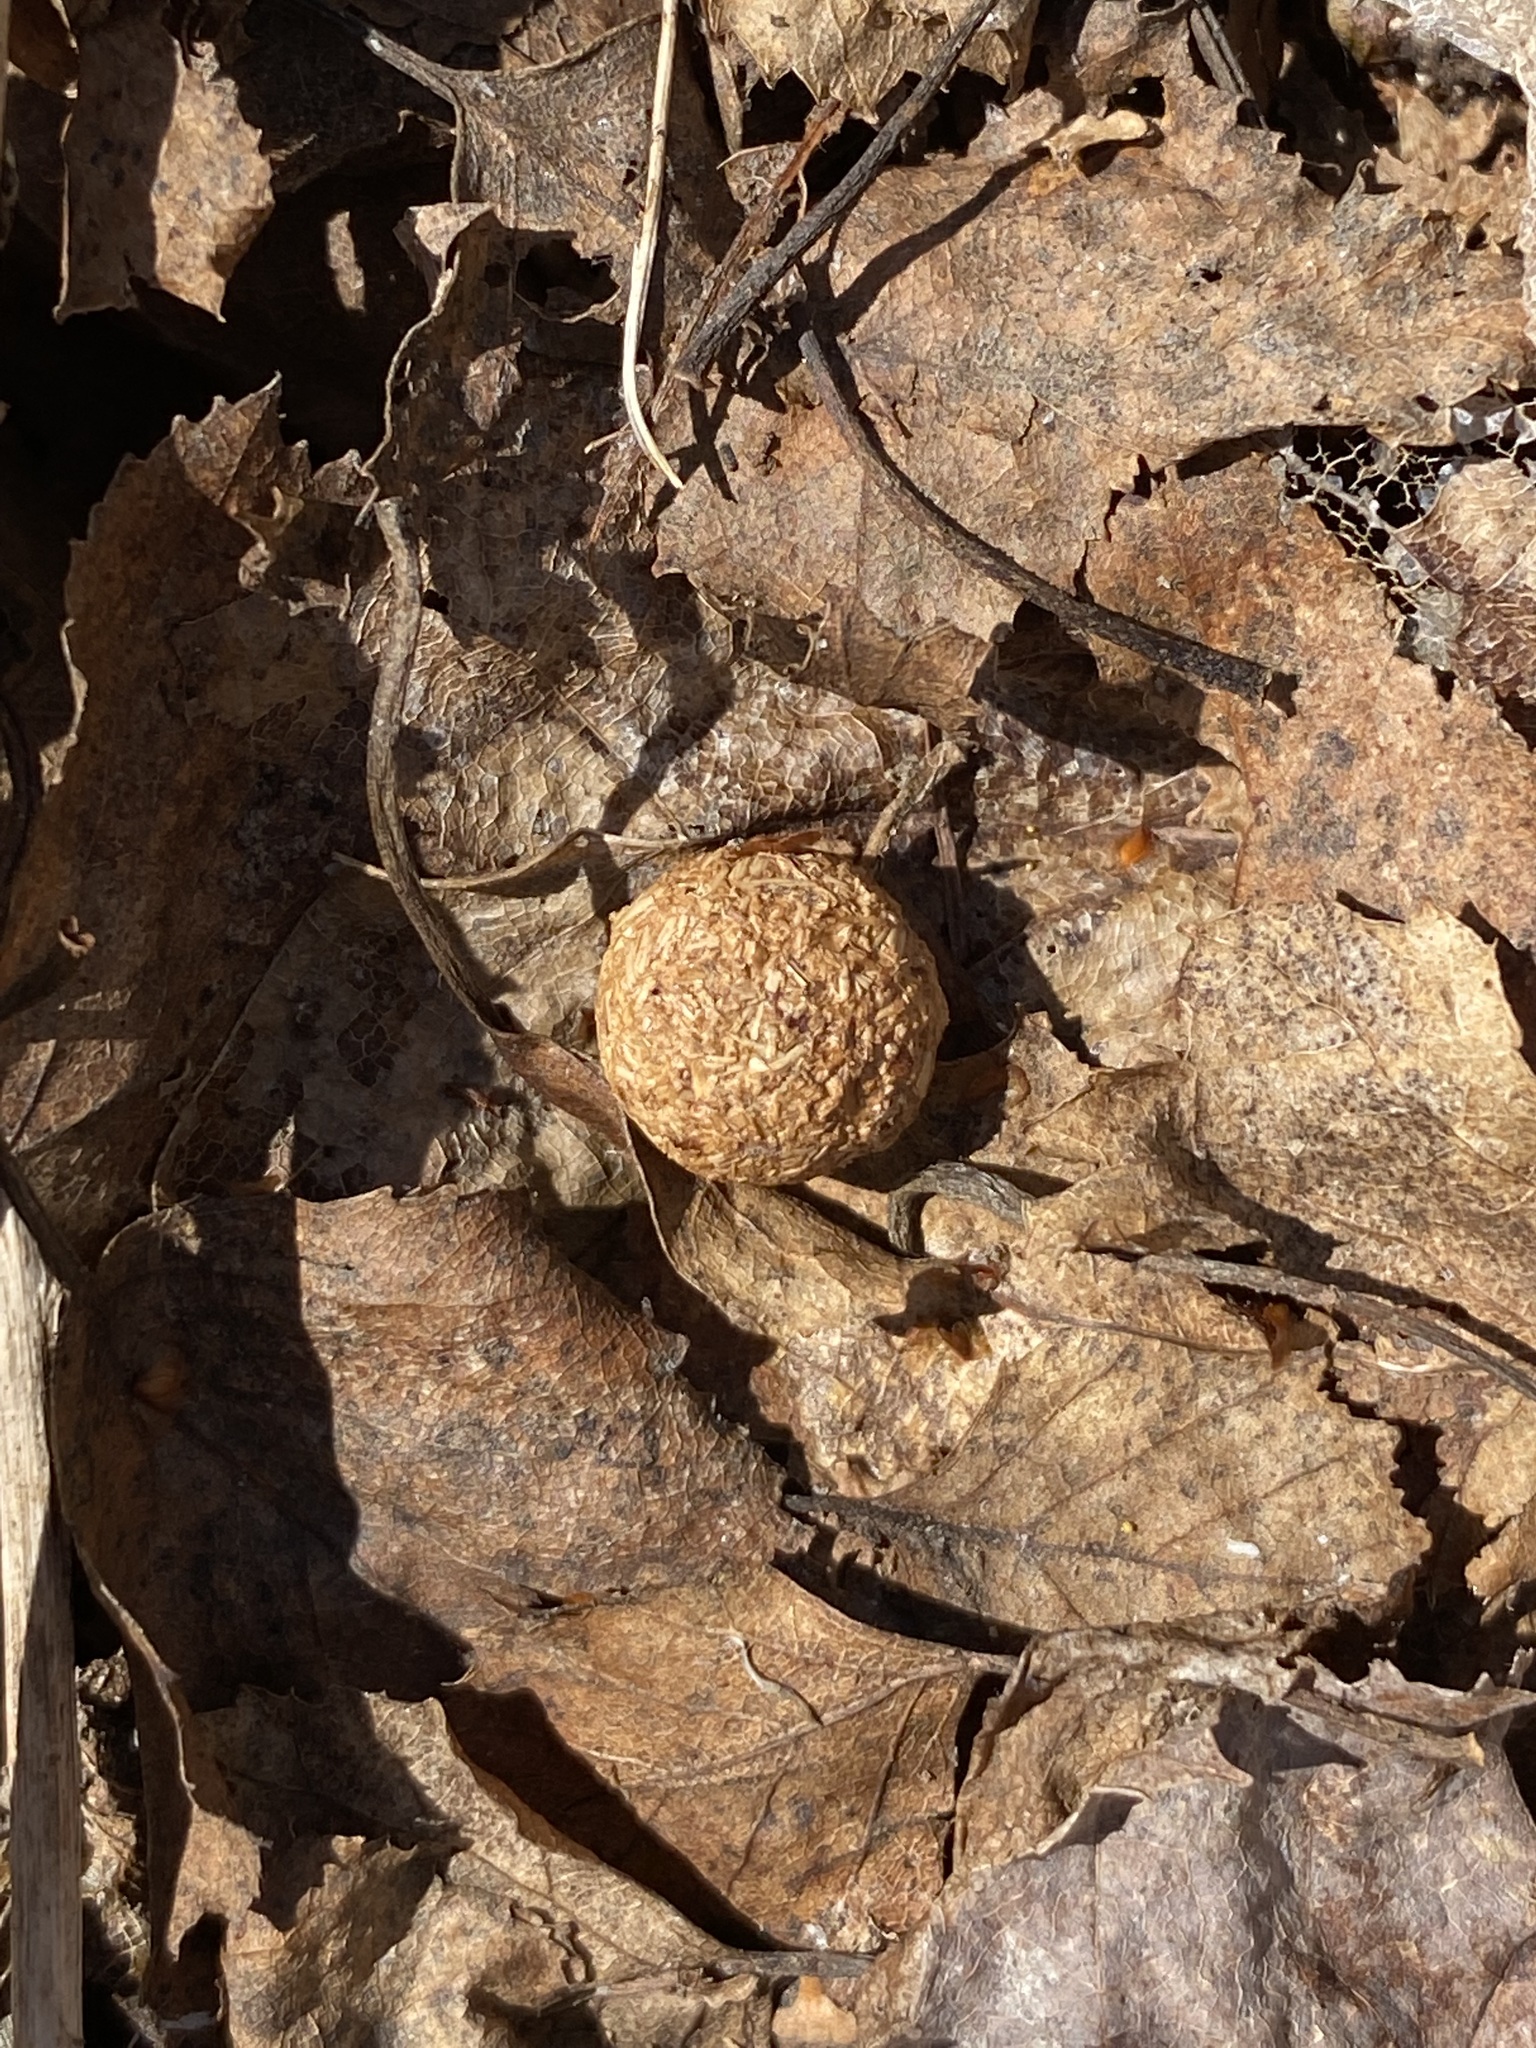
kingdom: Animalia
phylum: Chordata
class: Mammalia
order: Lagomorpha
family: Leporidae
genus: Lepus
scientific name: Lepus americanus
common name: Snowshoe hare
